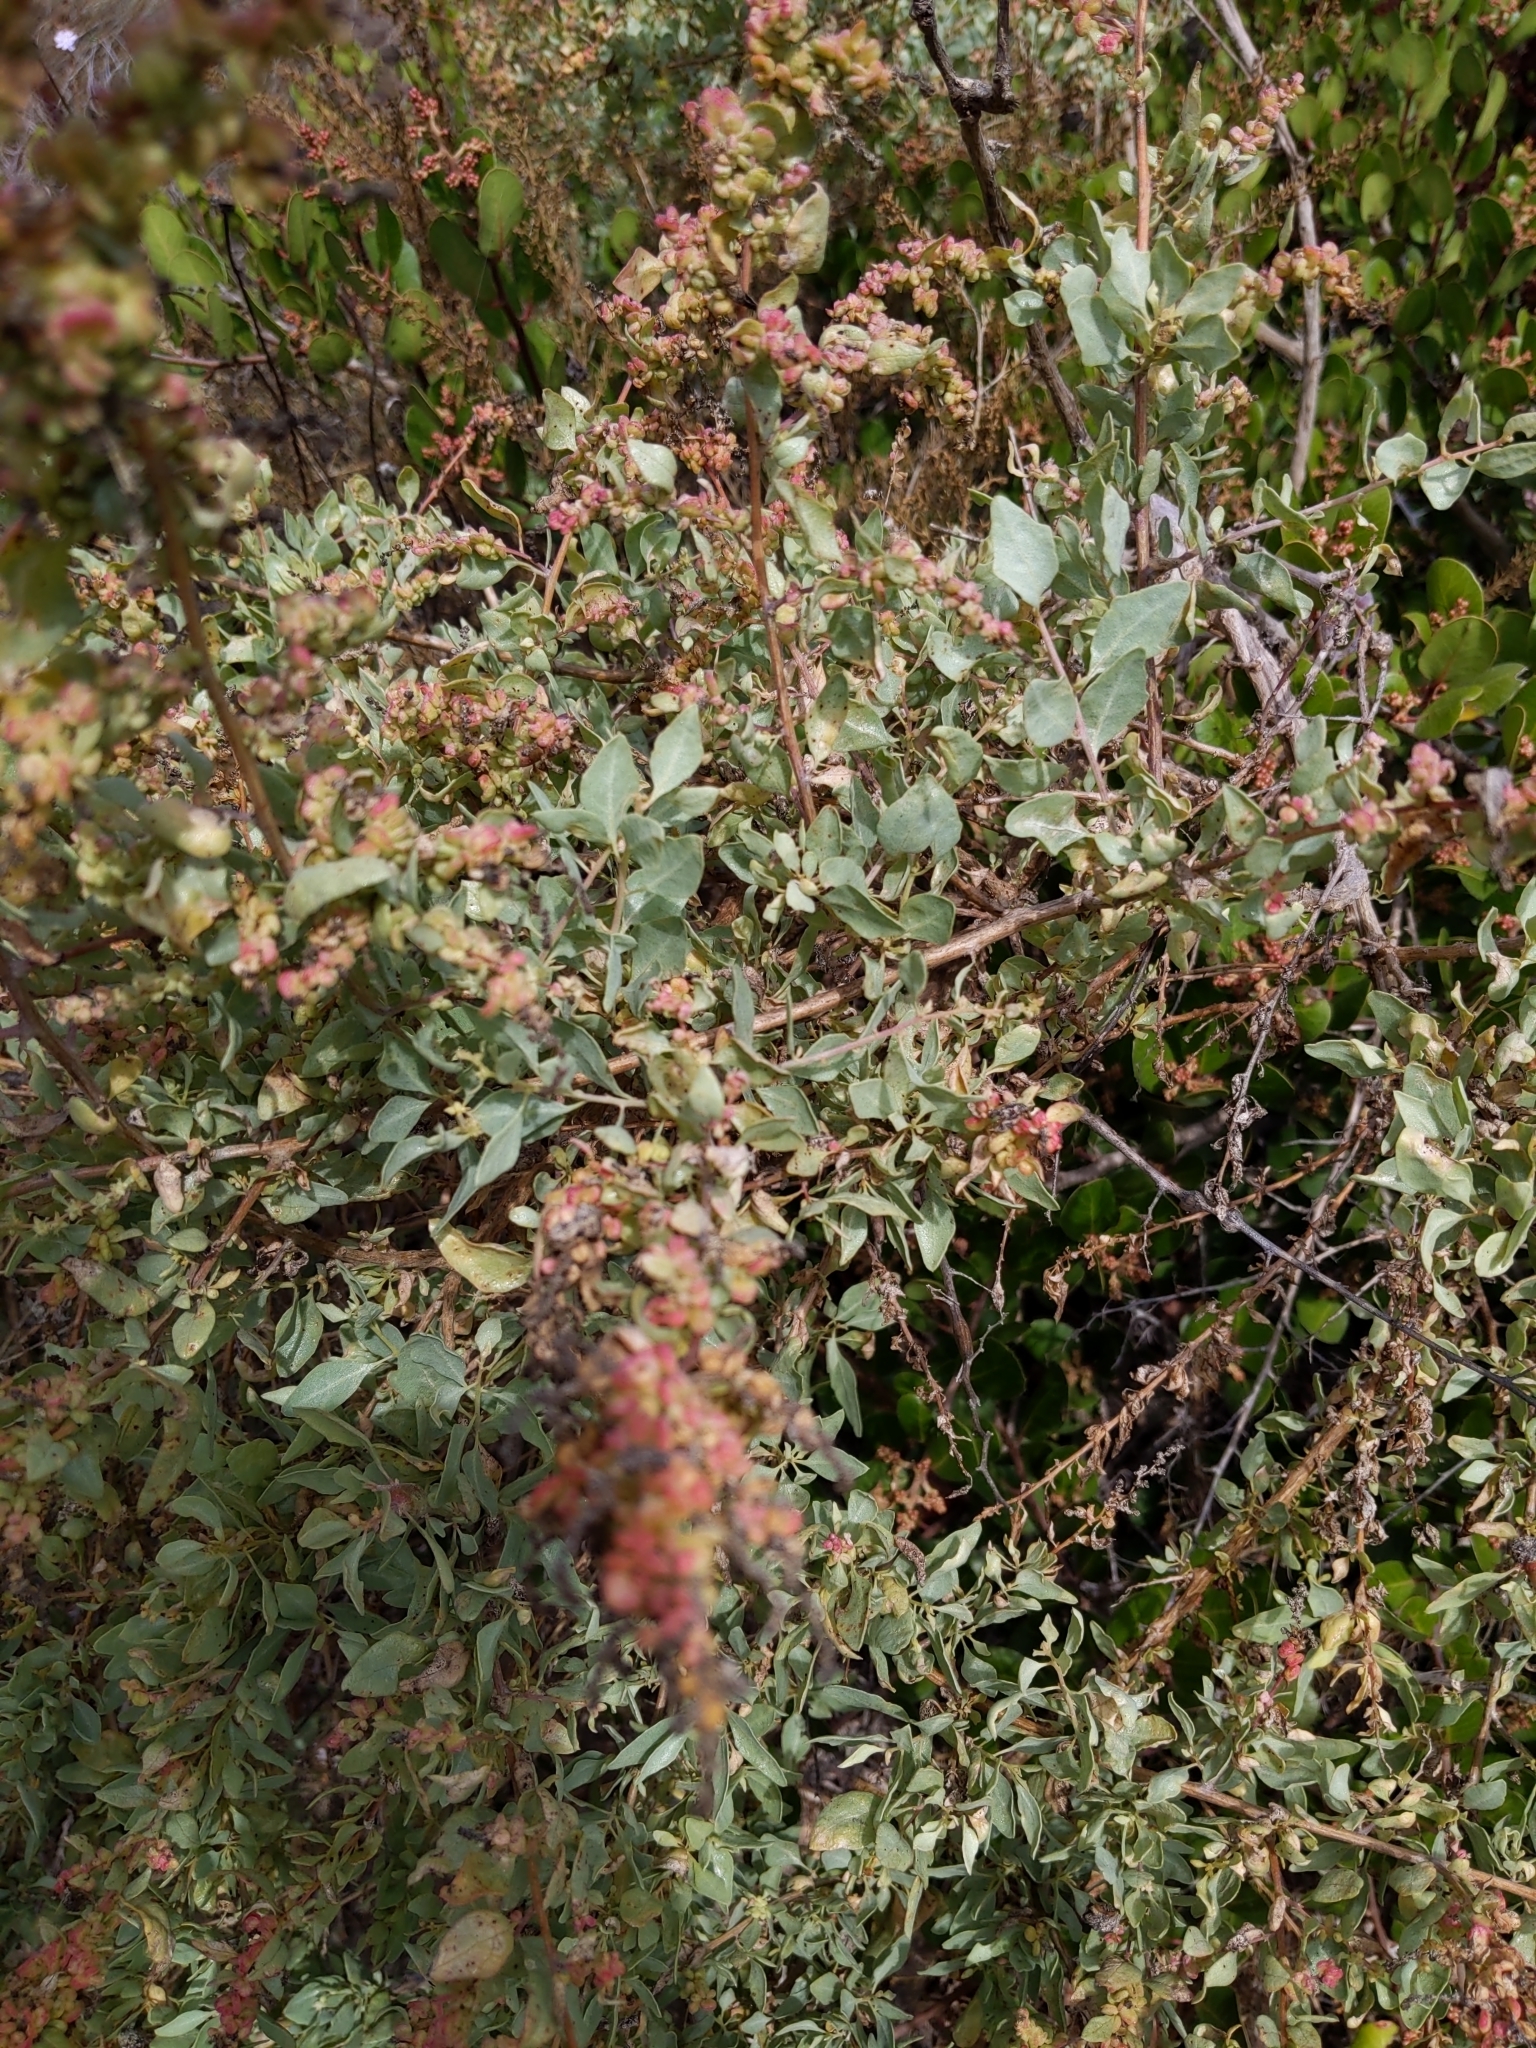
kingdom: Plantae
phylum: Tracheophyta
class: Magnoliopsida
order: Caryophyllales
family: Amaranthaceae
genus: Atriplex
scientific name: Atriplex lentiformis
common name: Big saltbush
